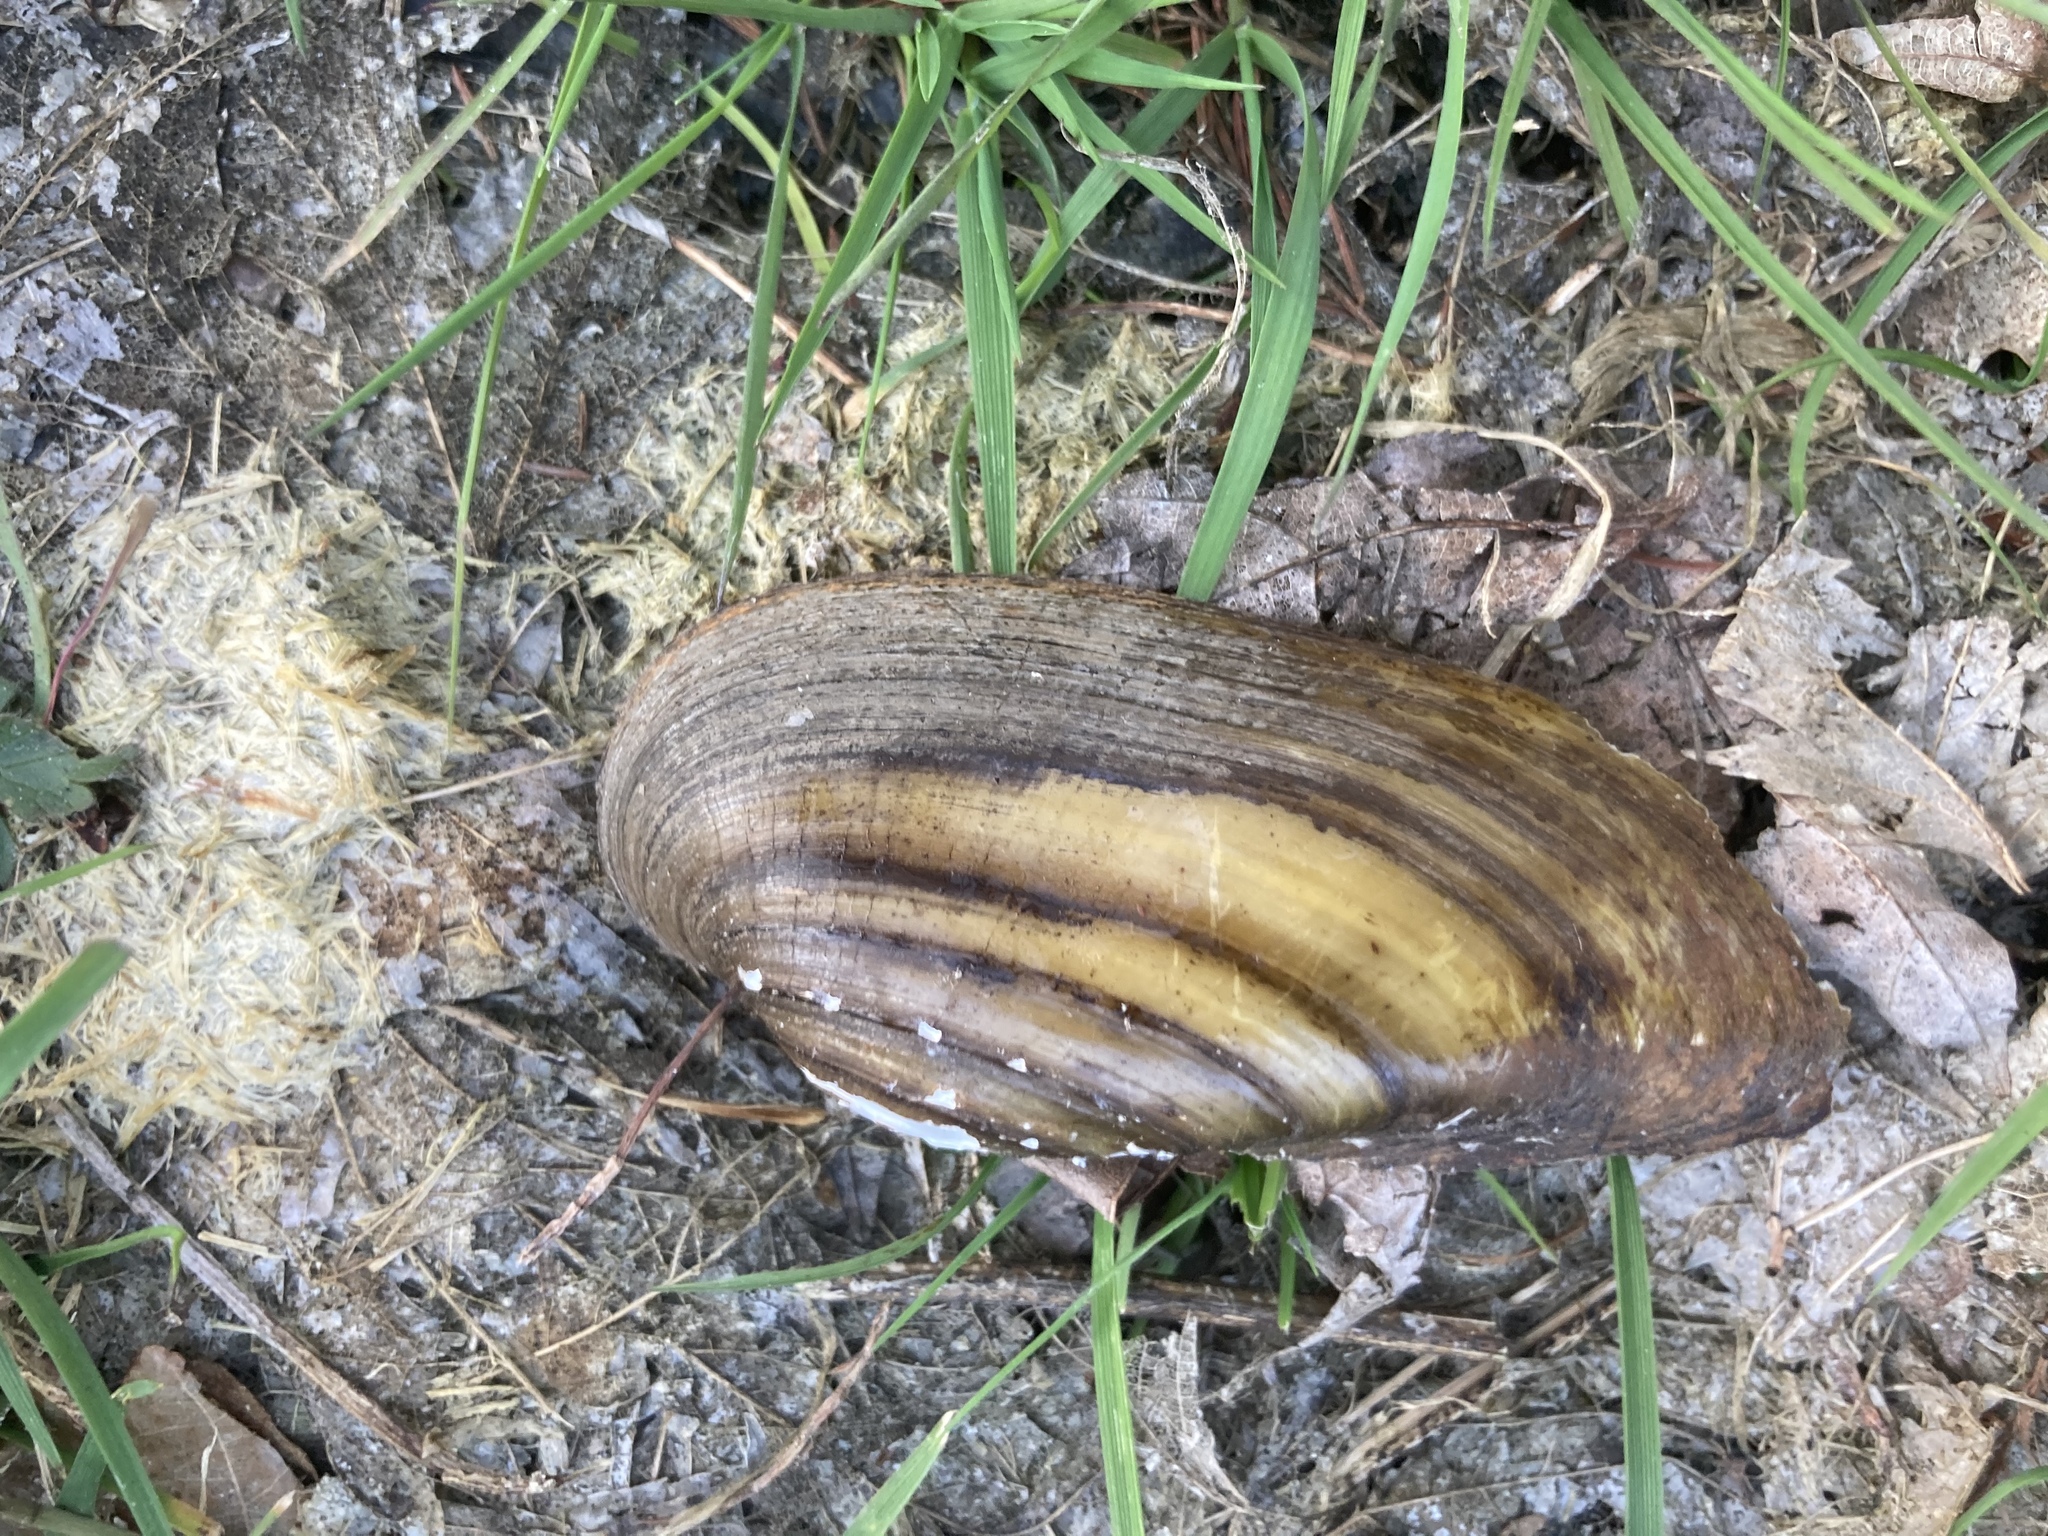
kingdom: Animalia
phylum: Mollusca
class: Bivalvia
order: Unionida
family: Unionidae
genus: Unio
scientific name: Unio pictorum
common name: Painter's mussel
